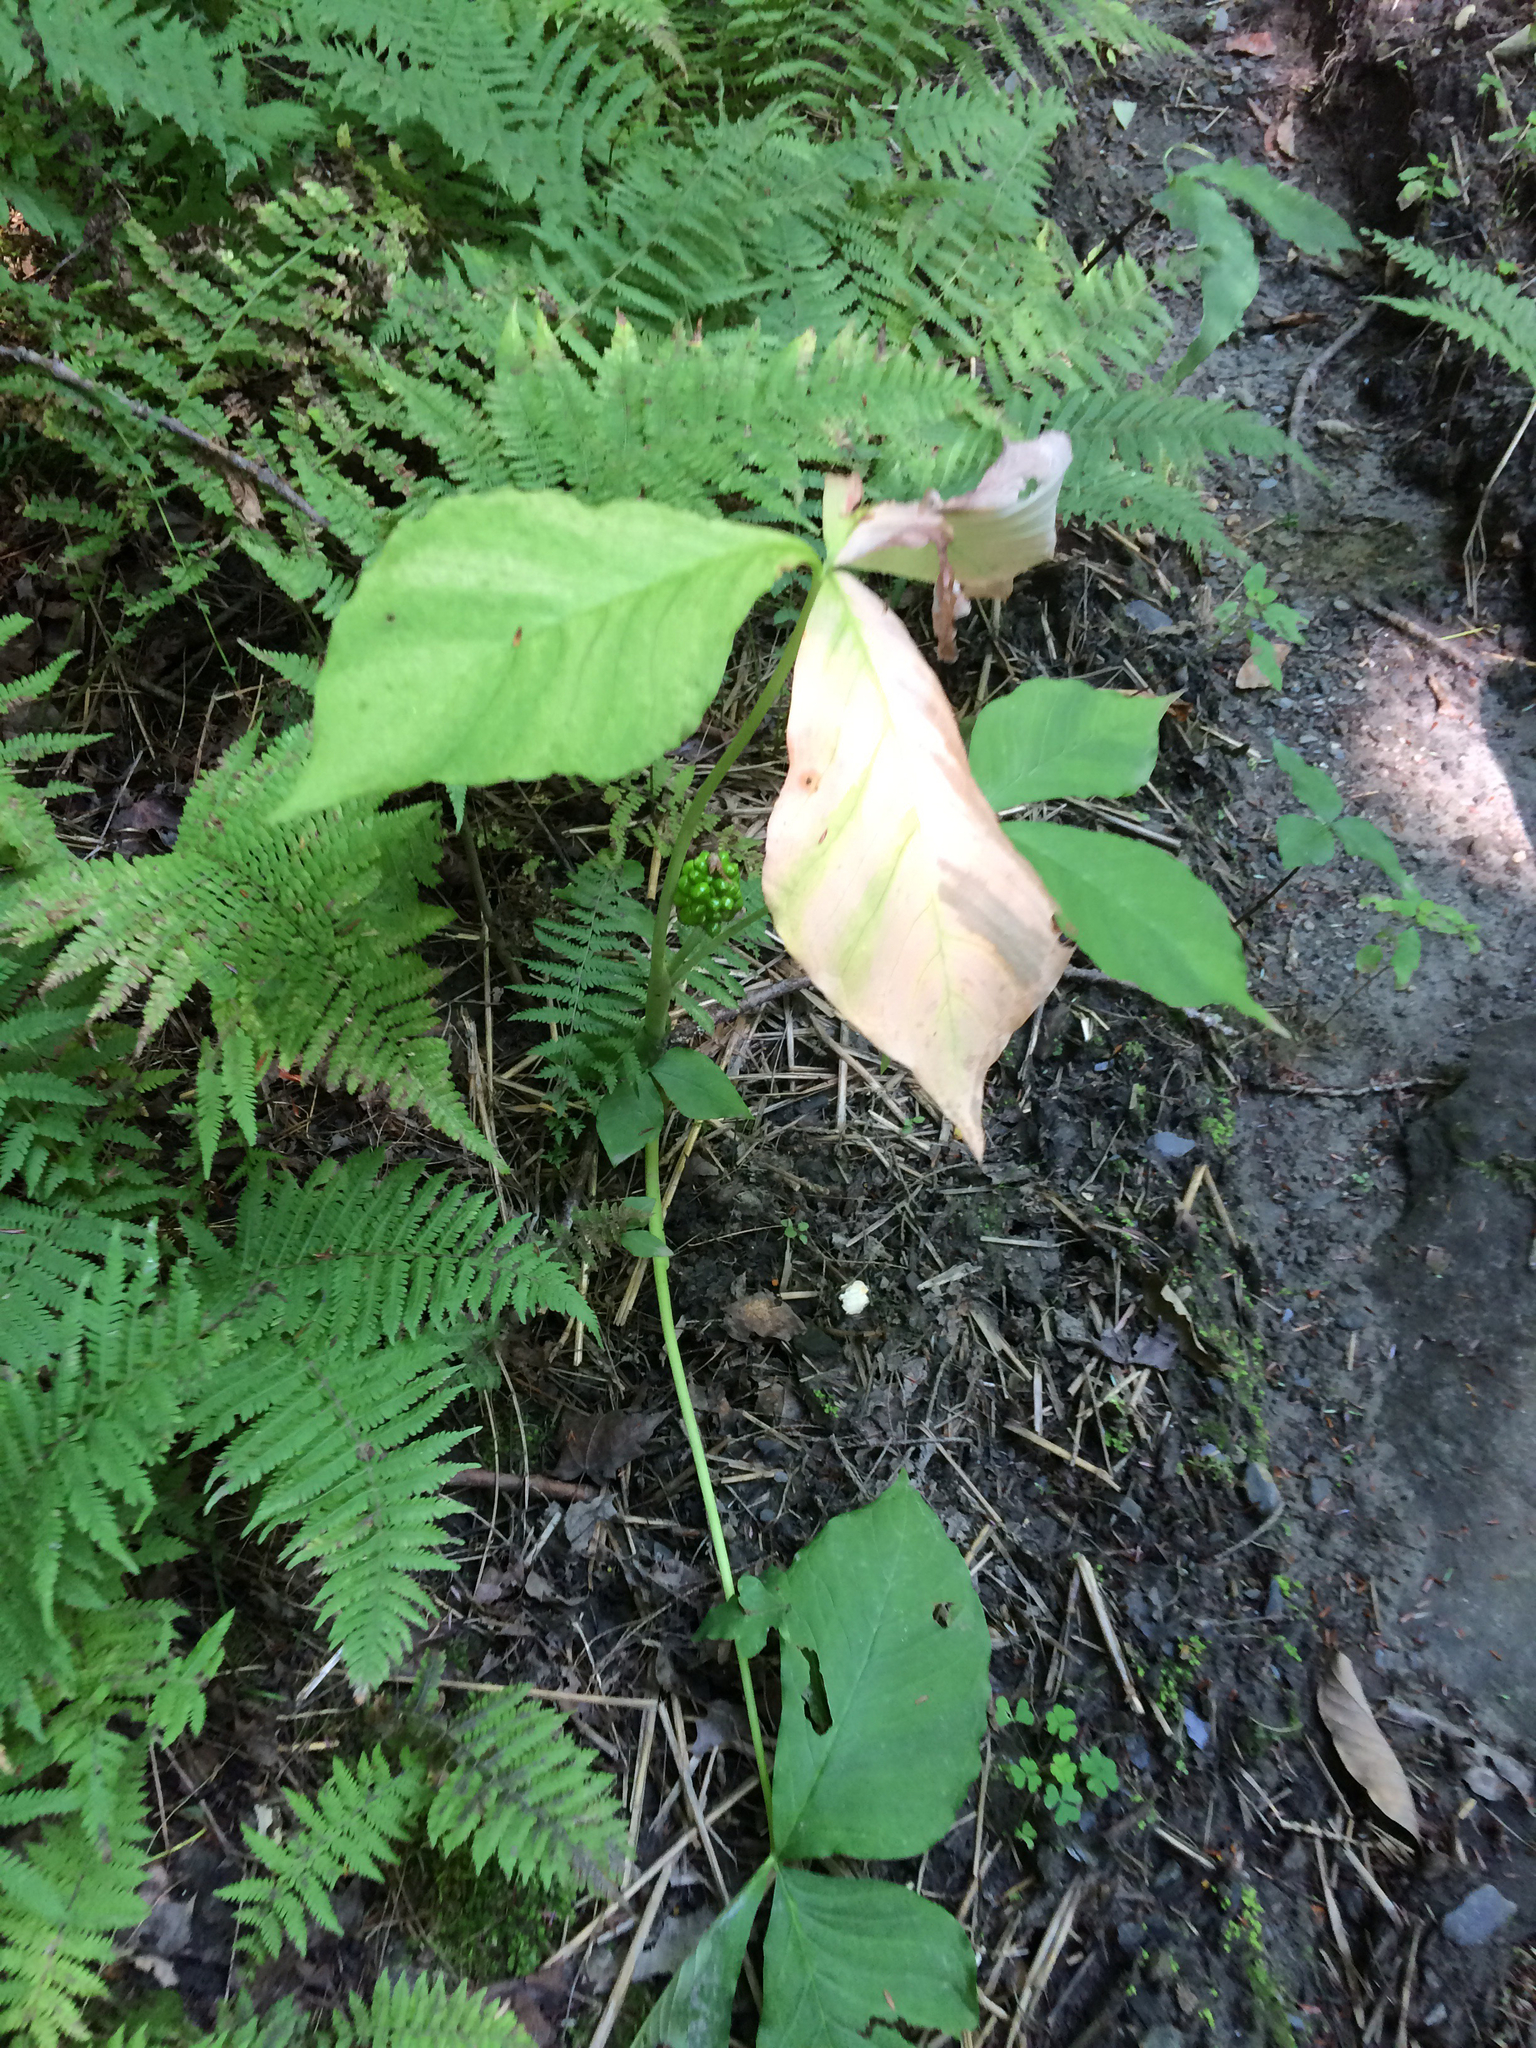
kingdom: Plantae
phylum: Tracheophyta
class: Liliopsida
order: Alismatales
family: Araceae
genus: Arisaema
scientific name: Arisaema triphyllum
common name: Jack-in-the-pulpit
